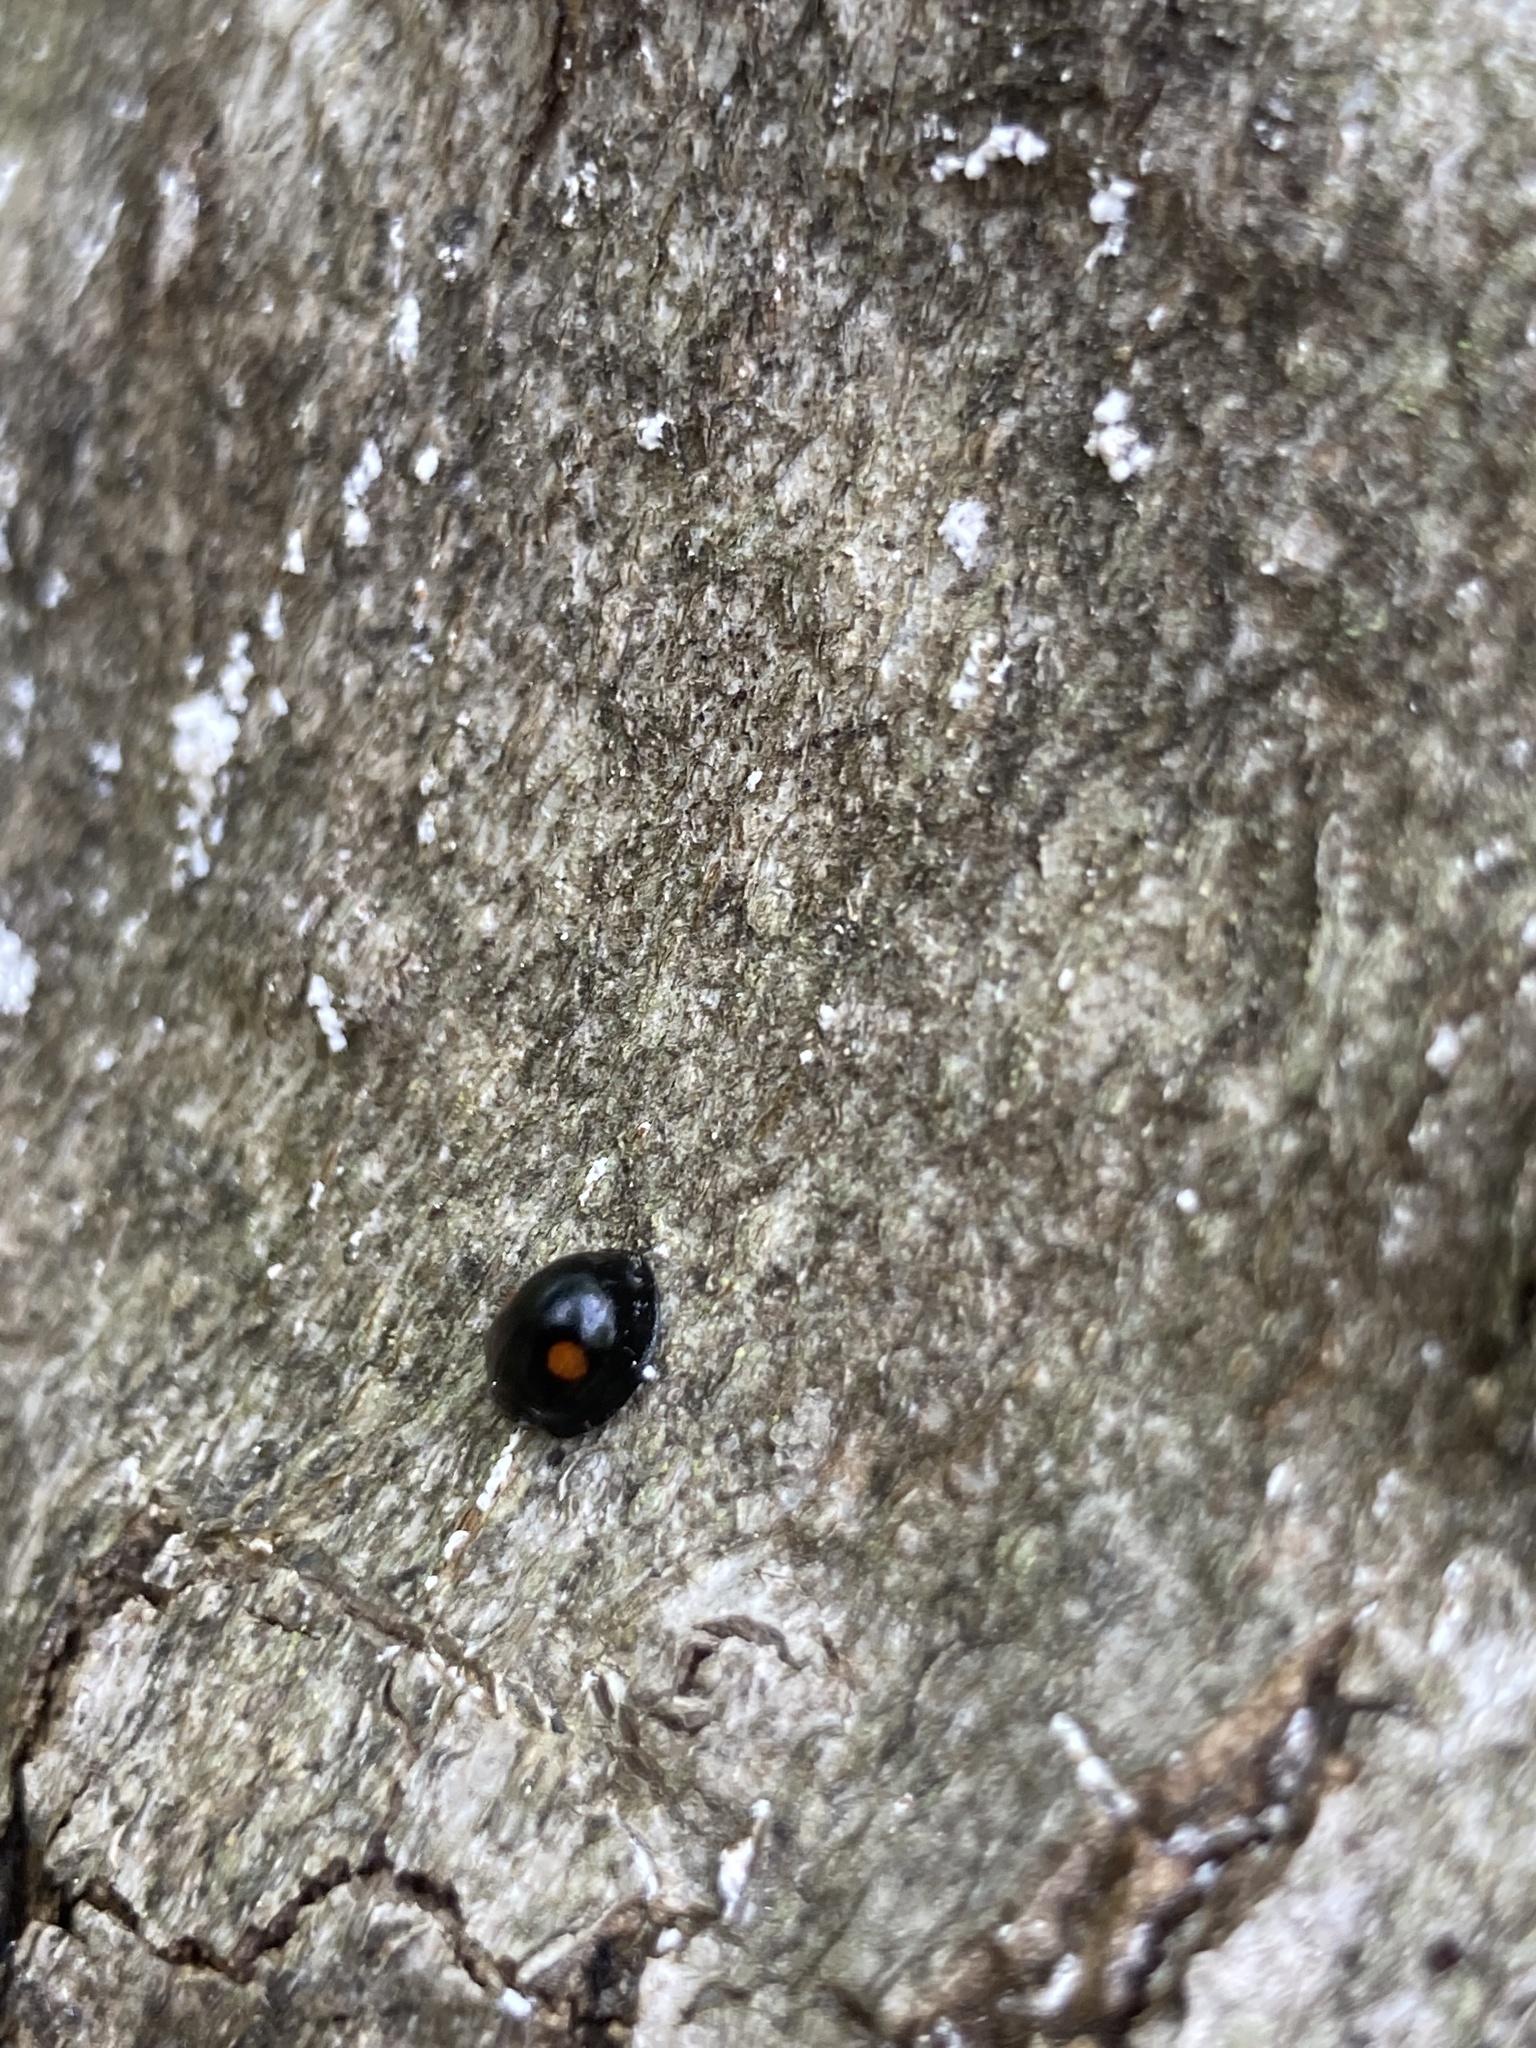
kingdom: Animalia
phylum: Arthropoda
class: Insecta
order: Coleoptera
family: Coccinellidae
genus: Chilocorus
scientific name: Chilocorus stigma
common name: Twicestabbed lady beetle
